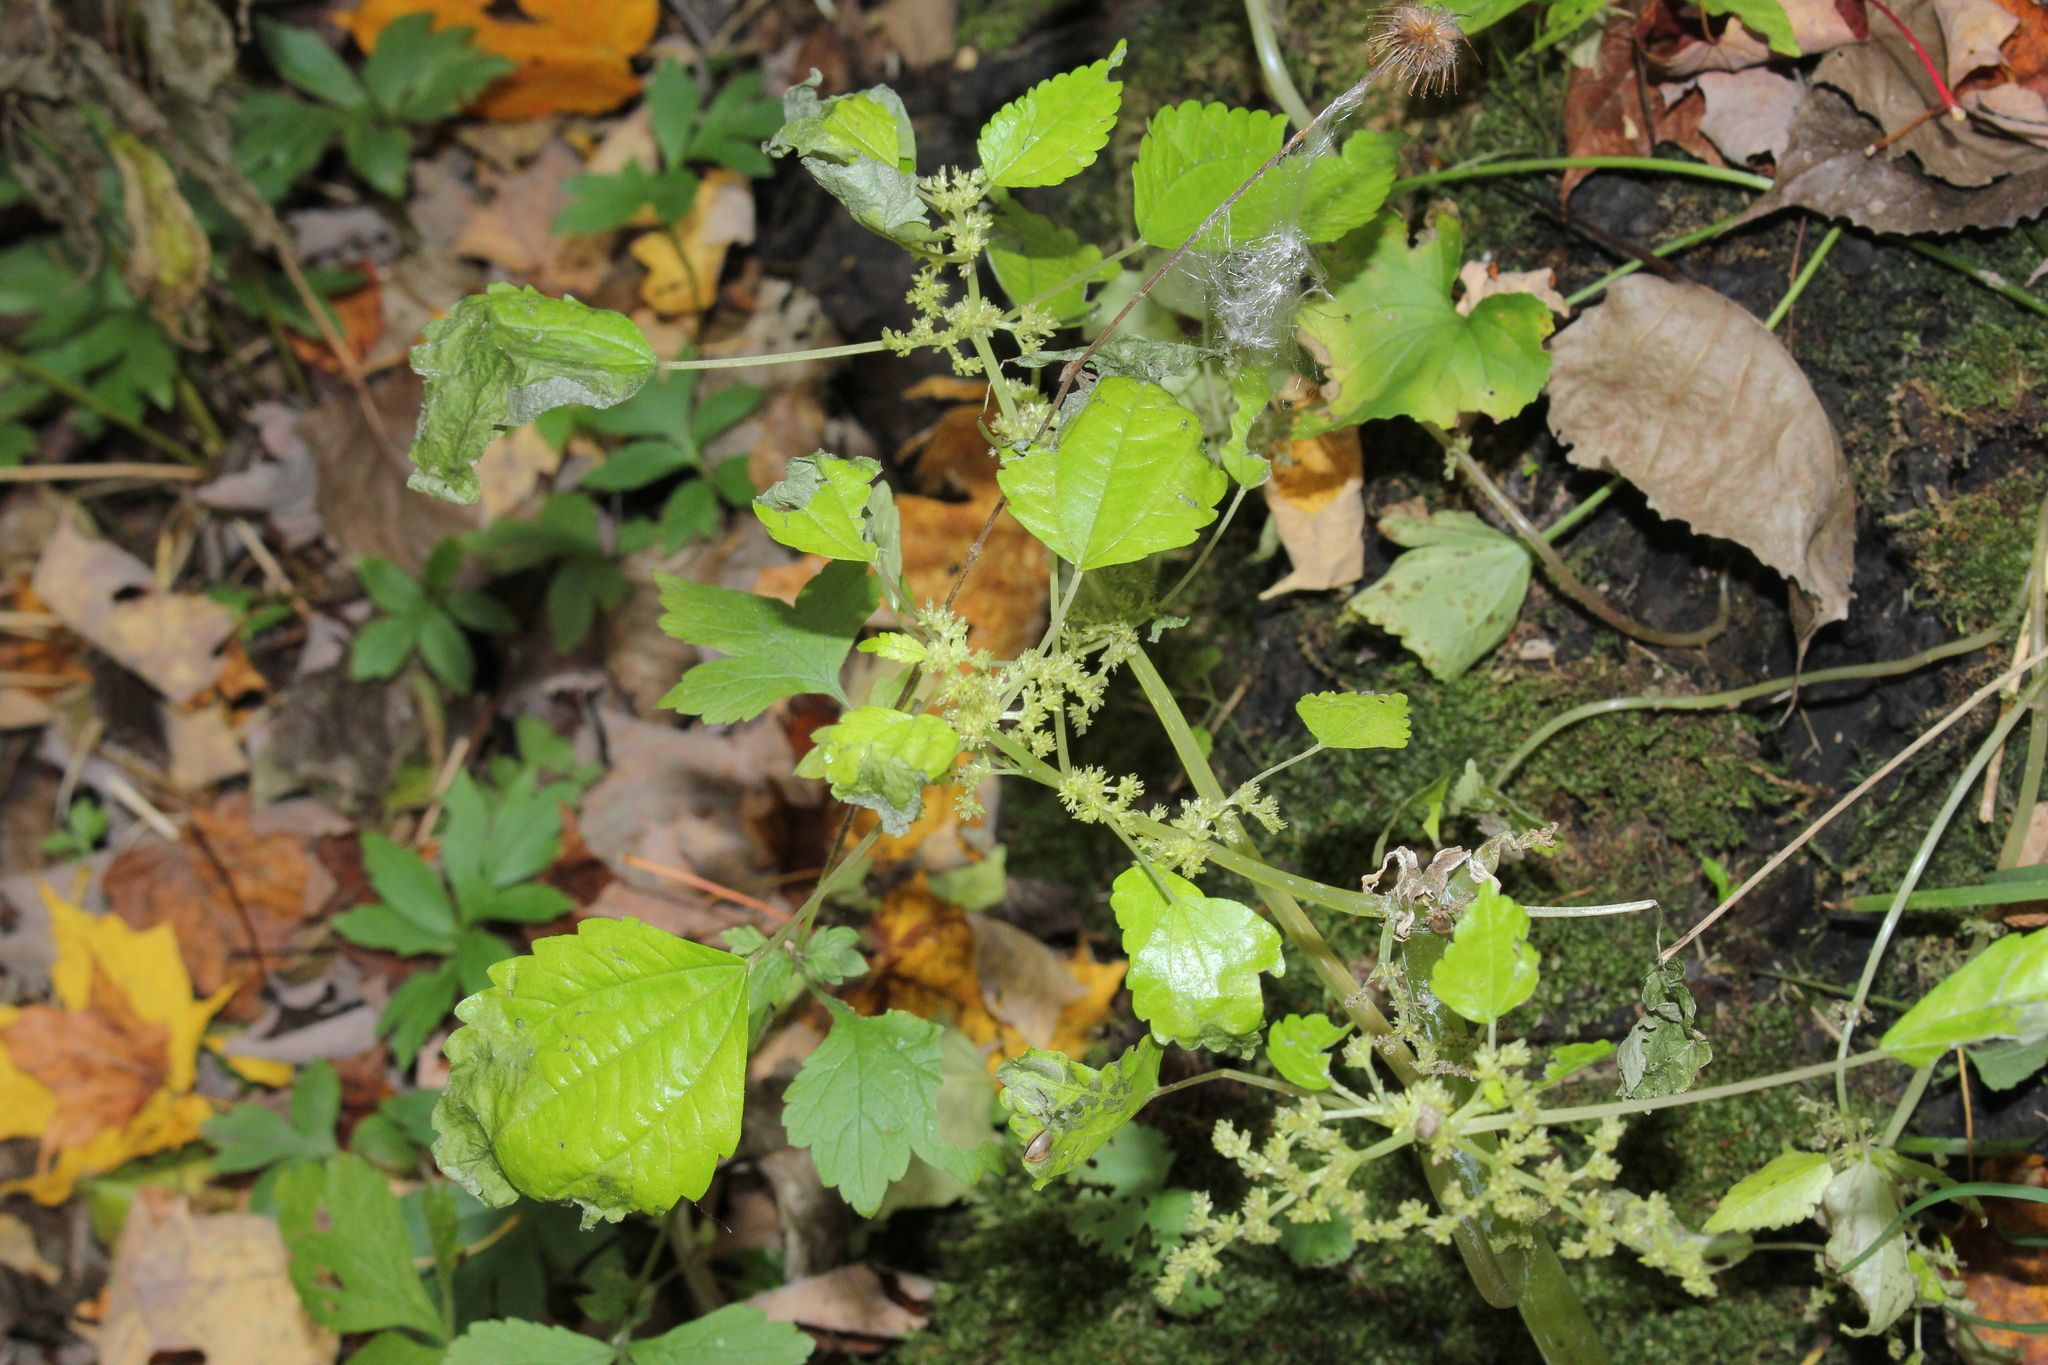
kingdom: Plantae
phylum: Tracheophyta
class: Magnoliopsida
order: Rosales
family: Urticaceae
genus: Pilea
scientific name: Pilea pumila
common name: Clearweed
